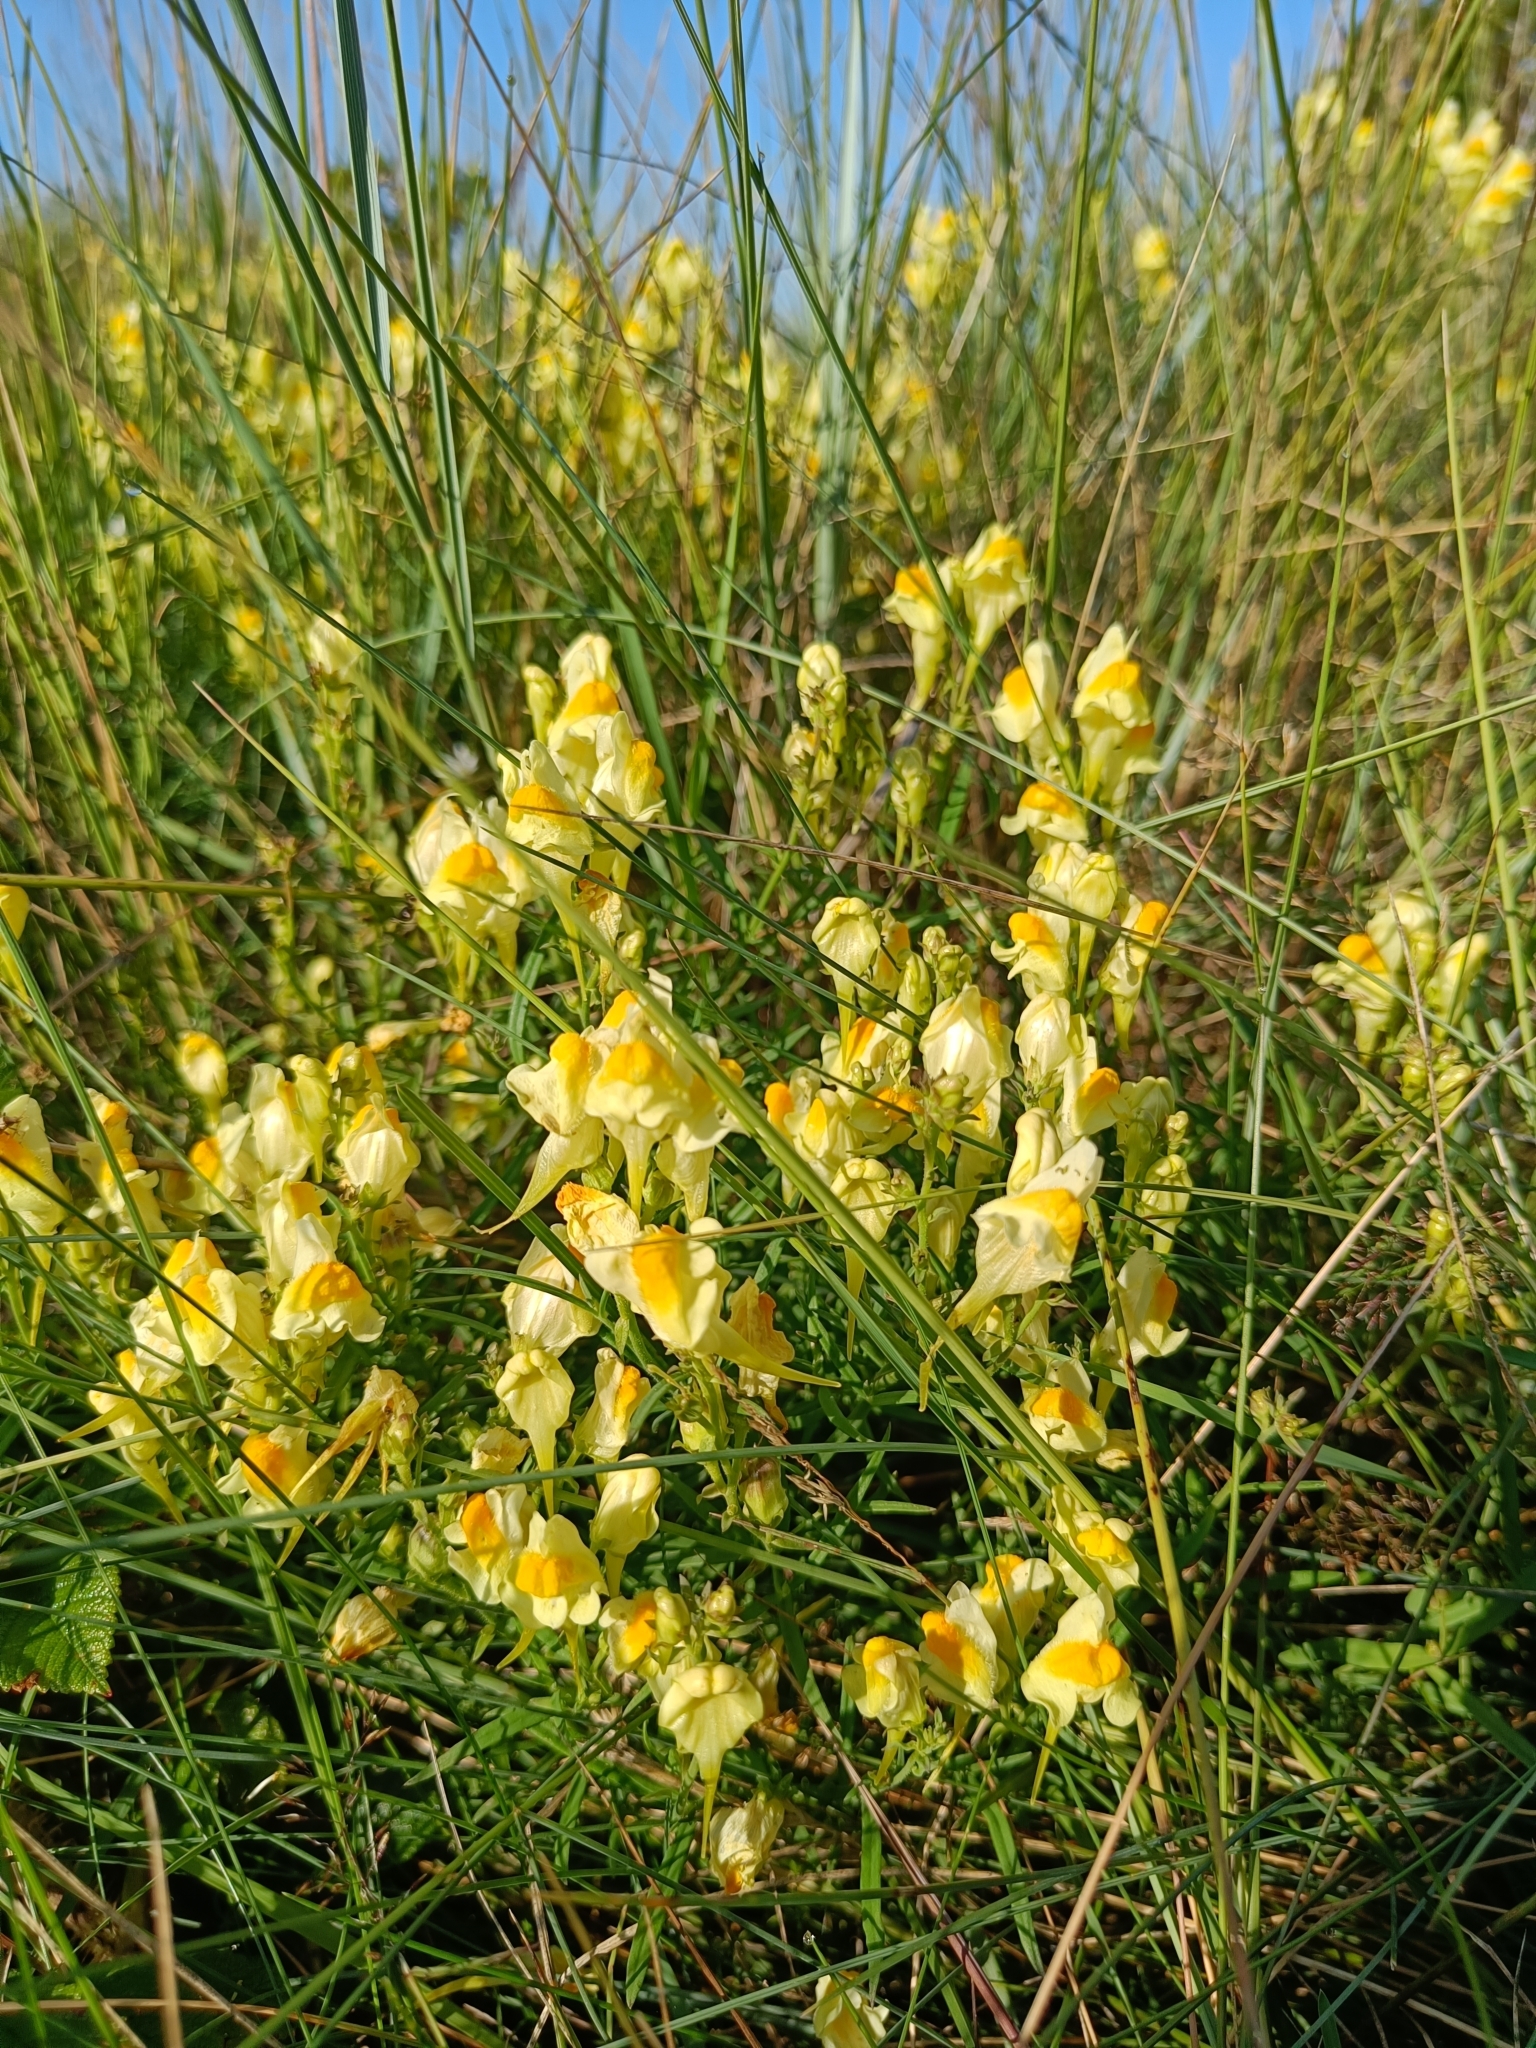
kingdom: Plantae
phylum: Tracheophyta
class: Magnoliopsida
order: Lamiales
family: Plantaginaceae
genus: Linaria
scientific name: Linaria vulgaris
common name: Butter and eggs
